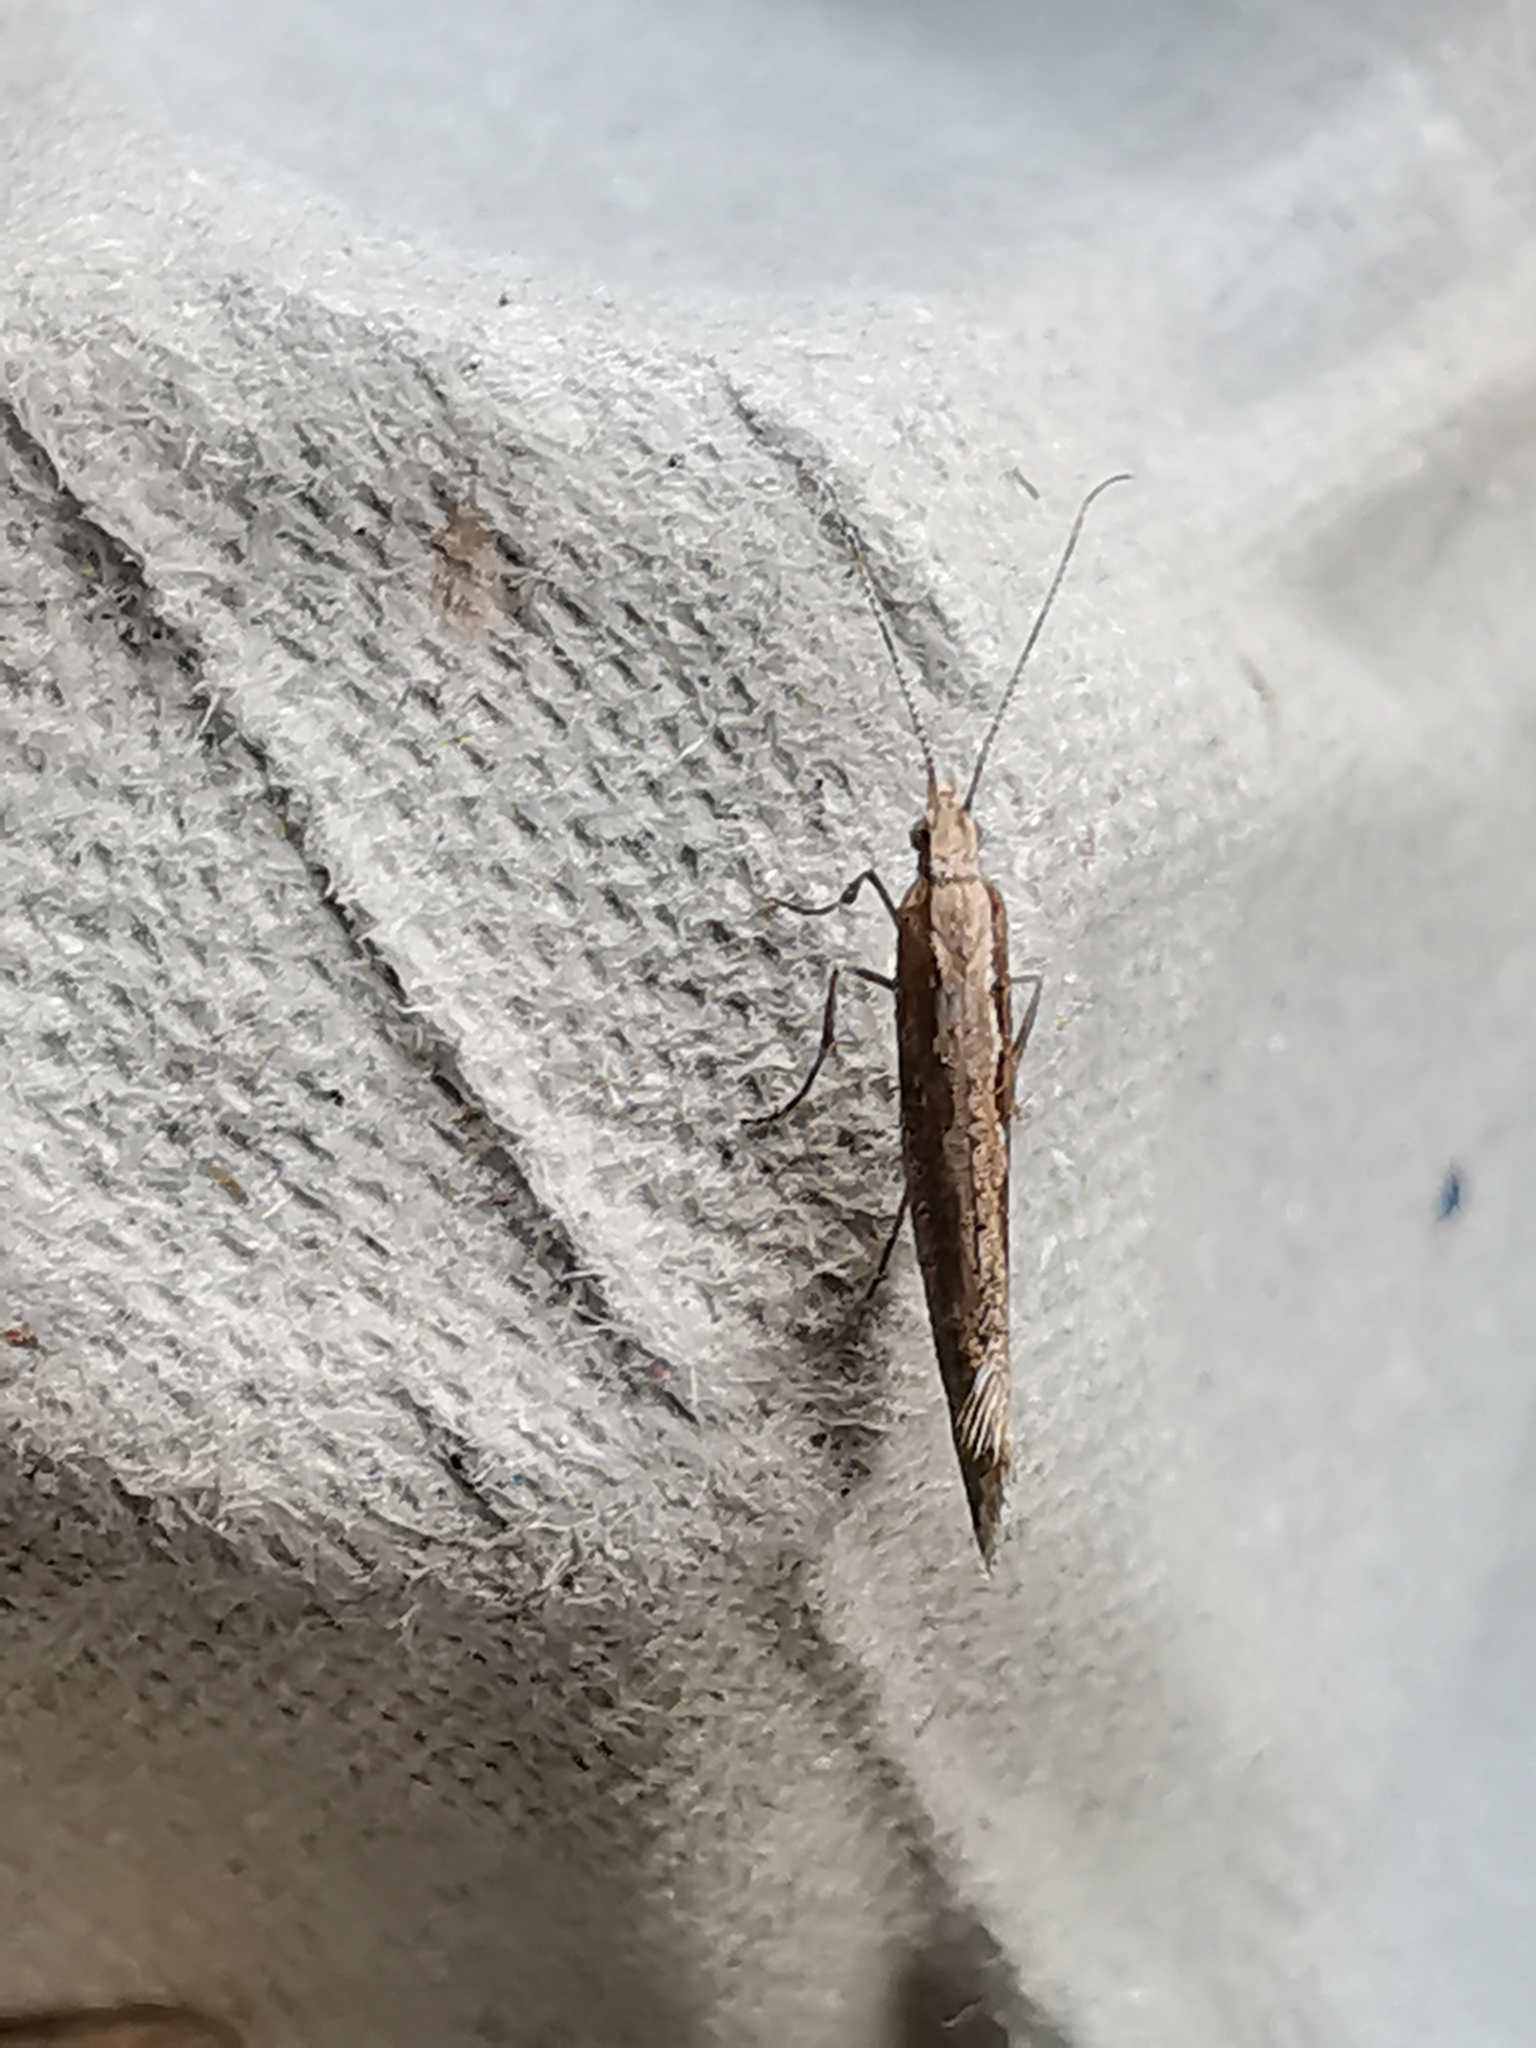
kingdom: Animalia
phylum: Arthropoda
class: Insecta
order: Lepidoptera
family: Plutellidae
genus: Plutella
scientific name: Plutella xylostella
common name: Diamond-back moth
